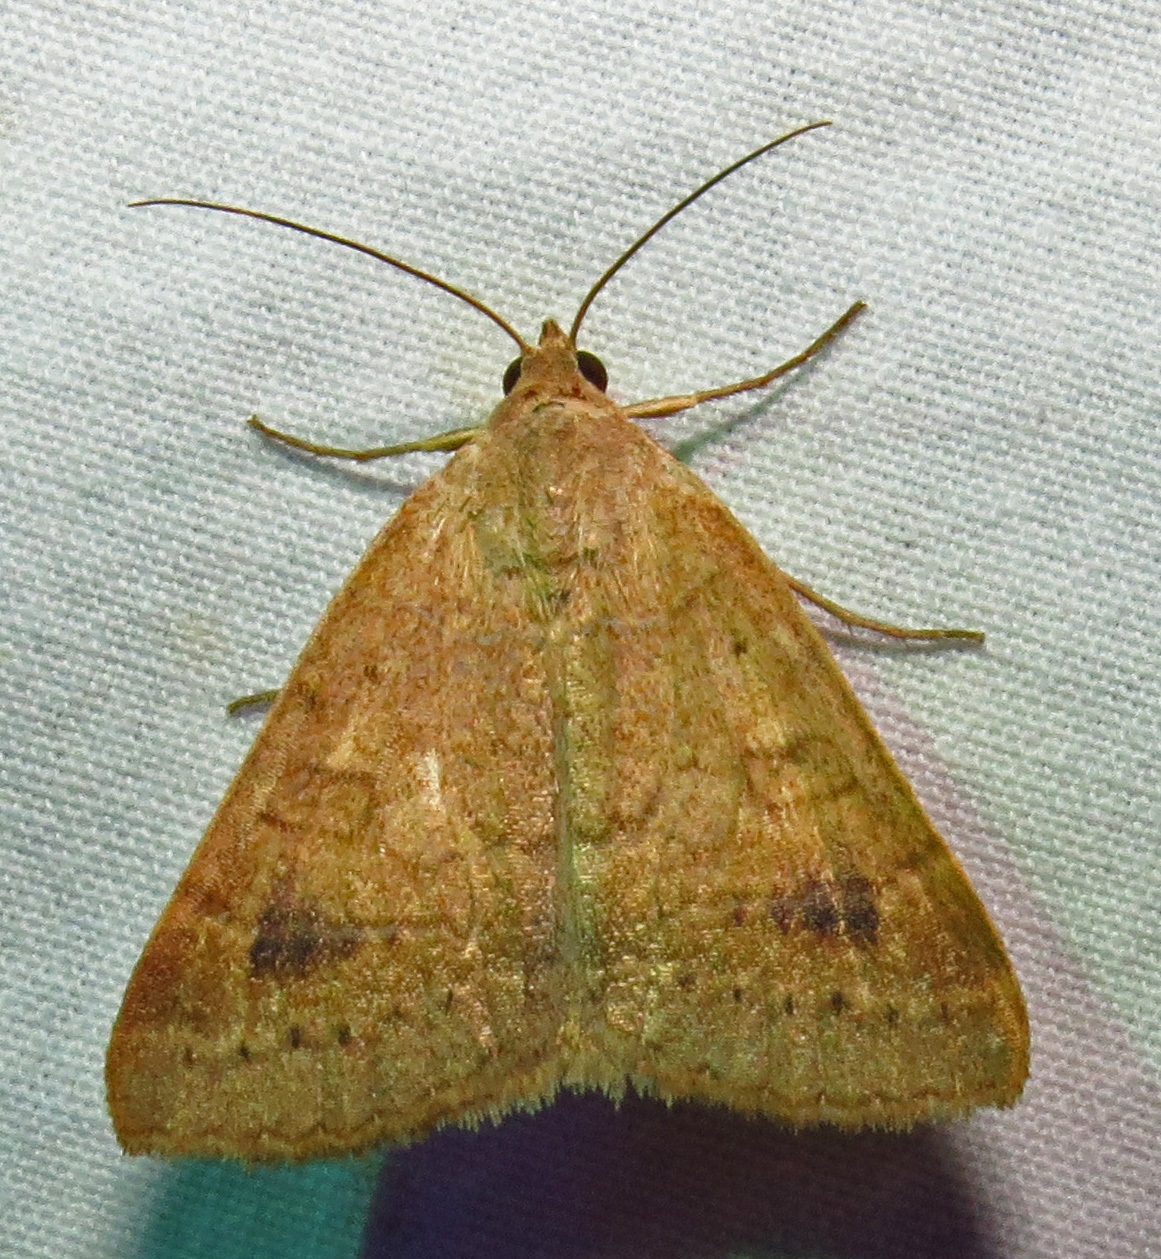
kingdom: Animalia
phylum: Arthropoda
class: Insecta
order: Lepidoptera
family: Erebidae
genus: Caenurgia
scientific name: Caenurgia chloropha
